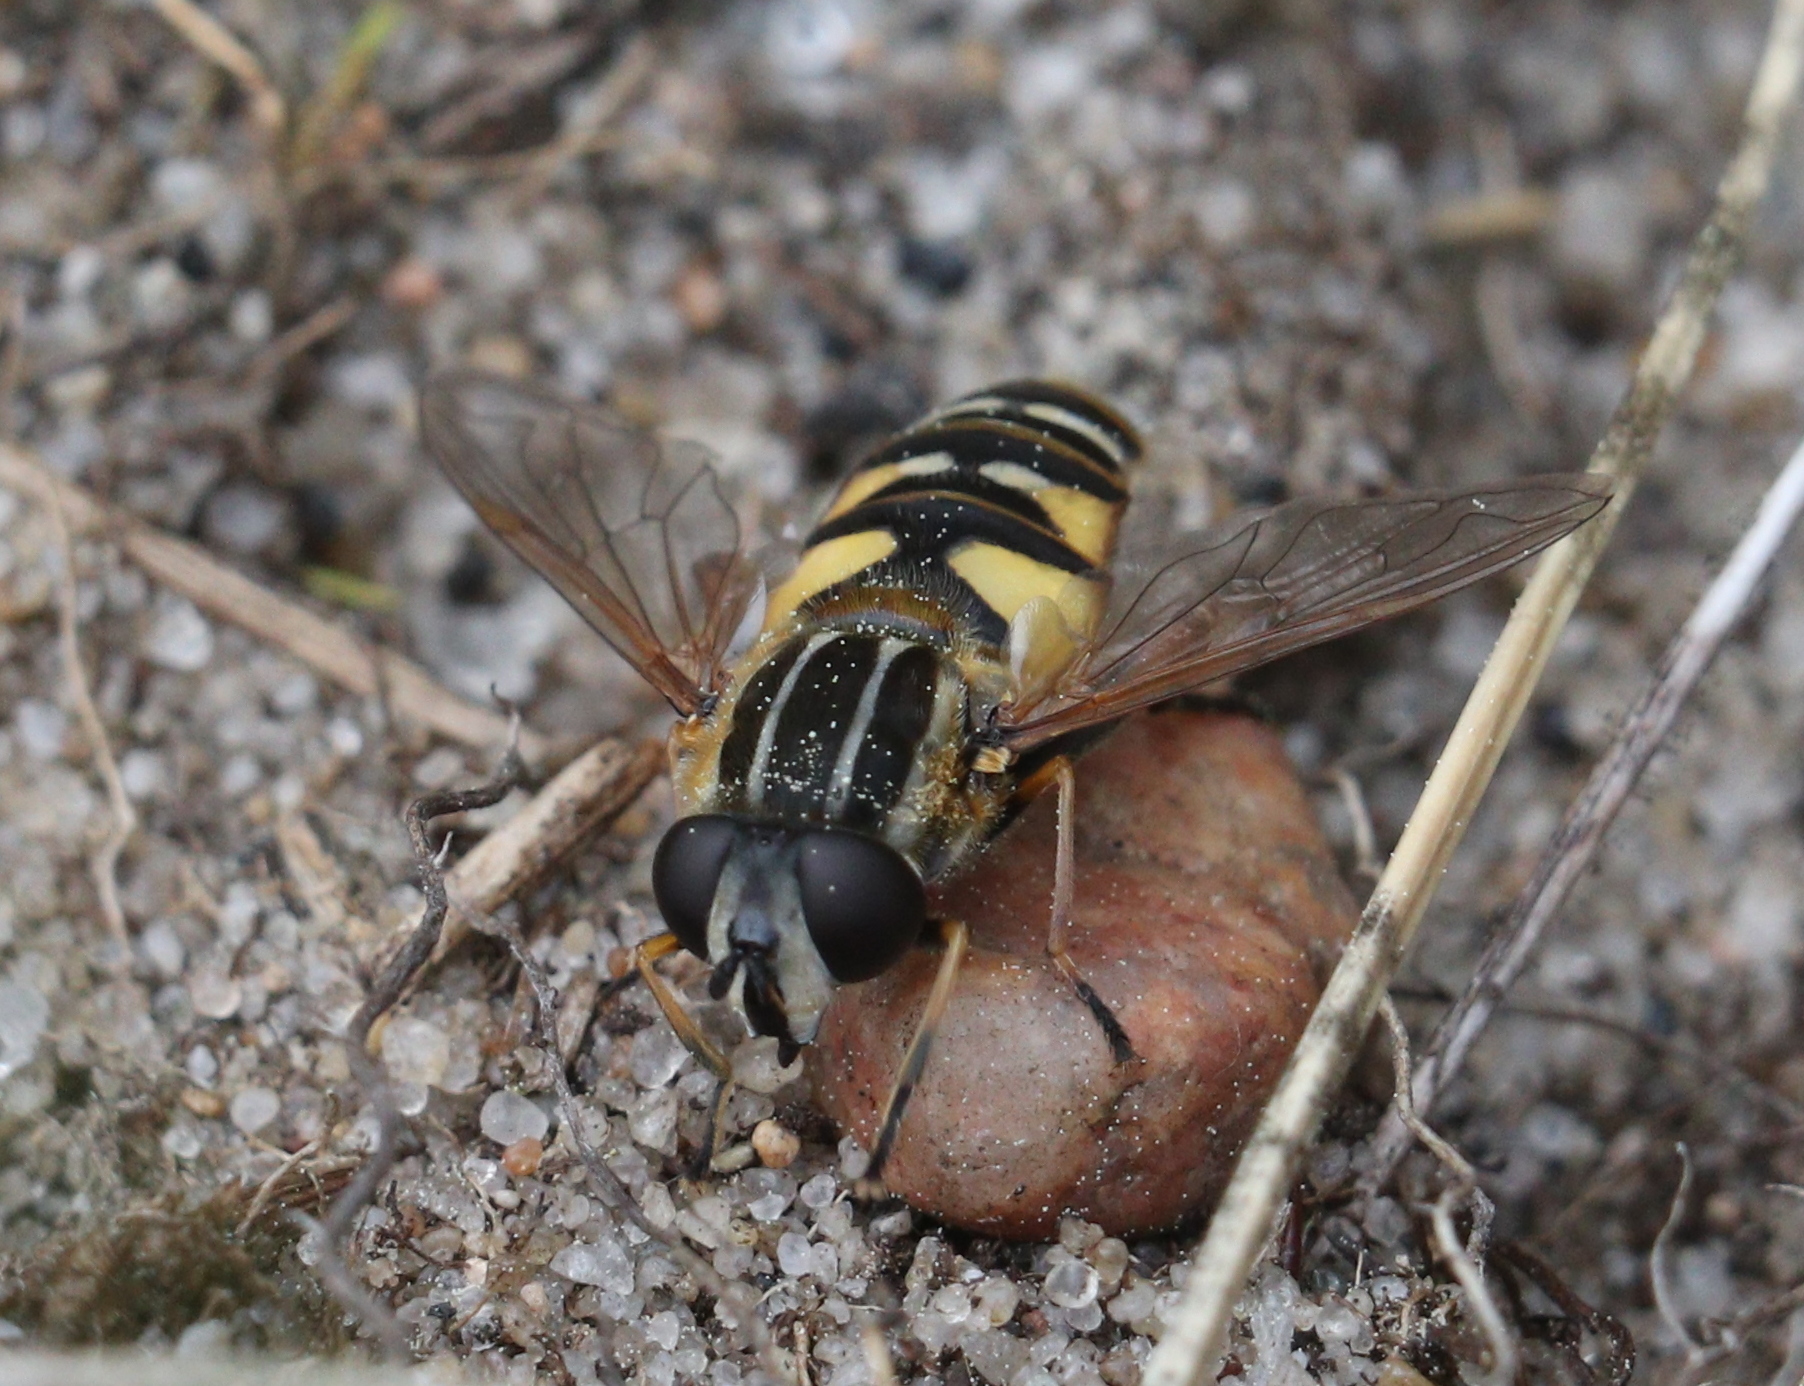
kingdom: Animalia
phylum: Arthropoda
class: Insecta
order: Diptera
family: Syrphidae
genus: Helophilus
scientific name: Helophilus pendulus
